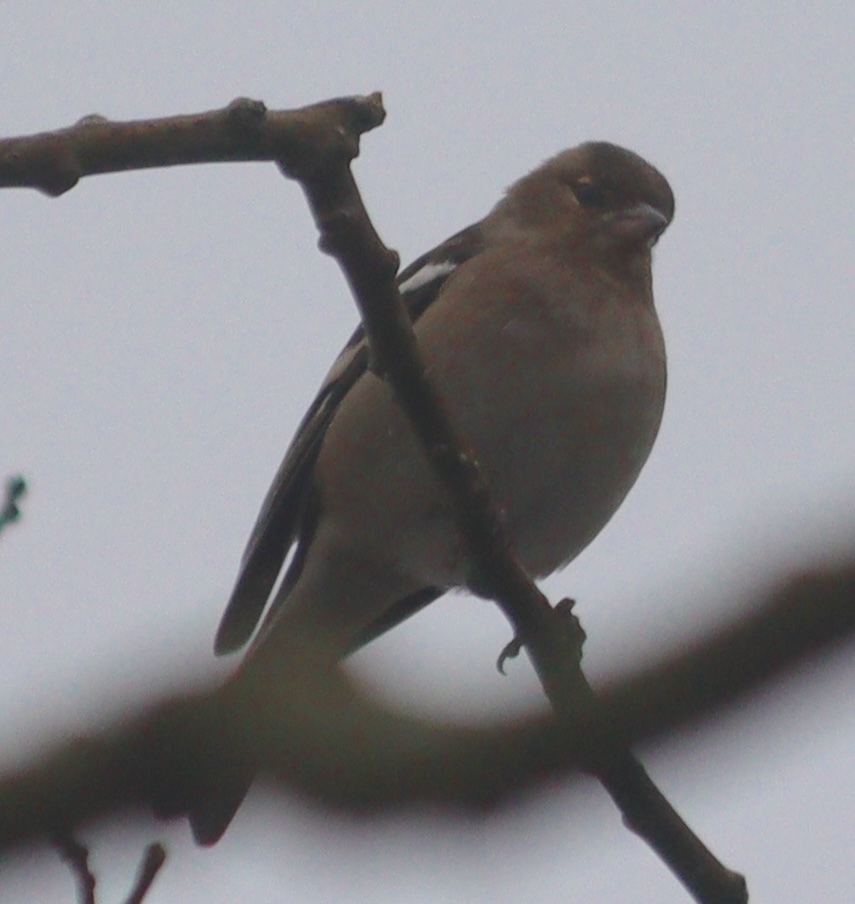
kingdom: Animalia
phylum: Chordata
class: Aves
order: Passeriformes
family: Fringillidae
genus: Fringilla
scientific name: Fringilla coelebs
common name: Common chaffinch
